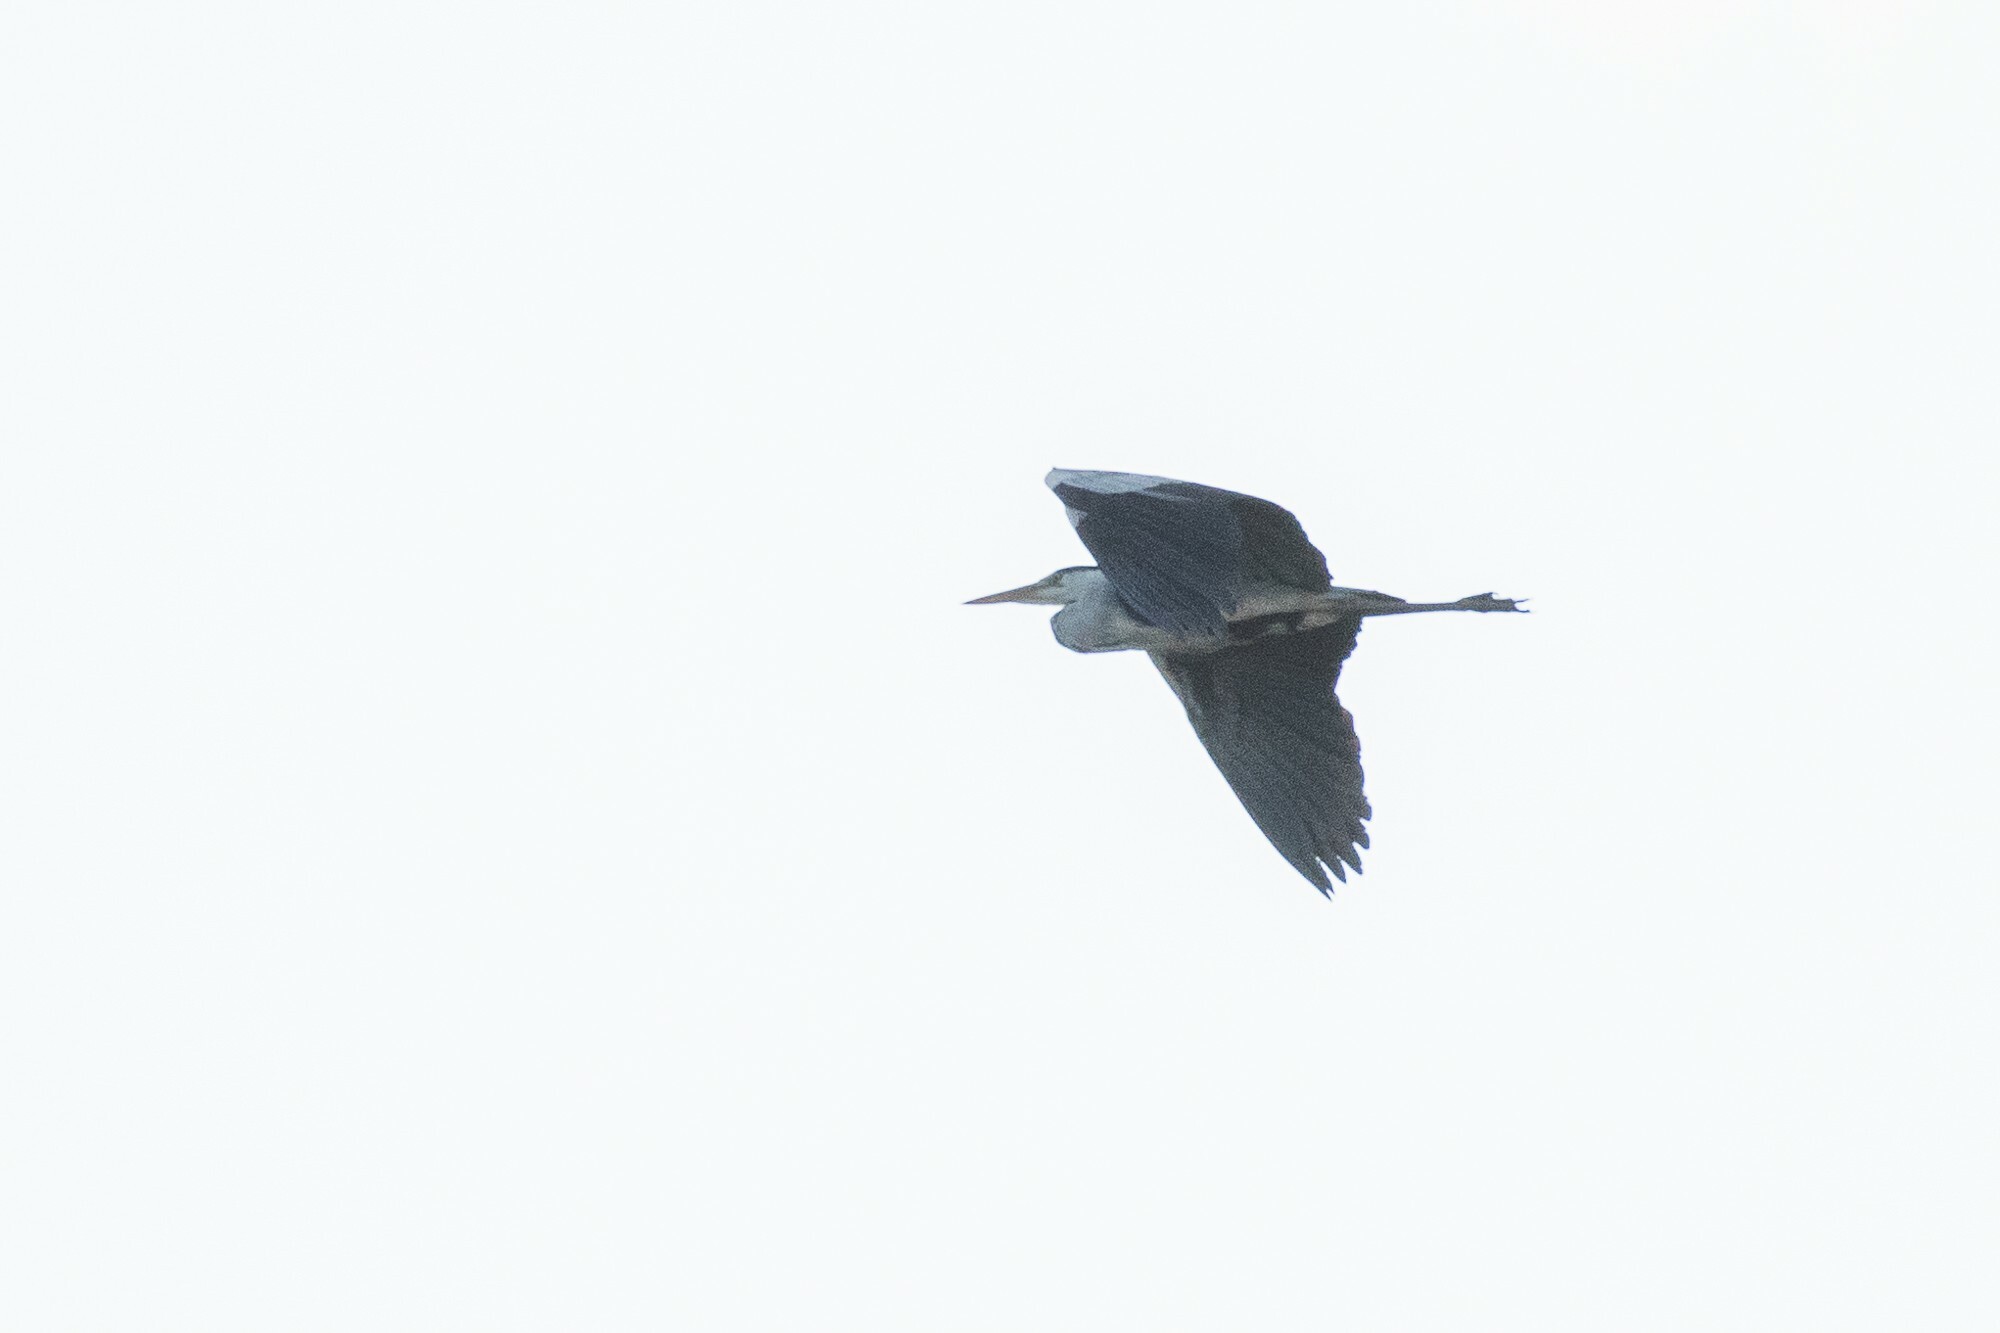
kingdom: Animalia
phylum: Chordata
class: Aves
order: Pelecaniformes
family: Ardeidae
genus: Ardea
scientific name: Ardea cinerea
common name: Grey heron
